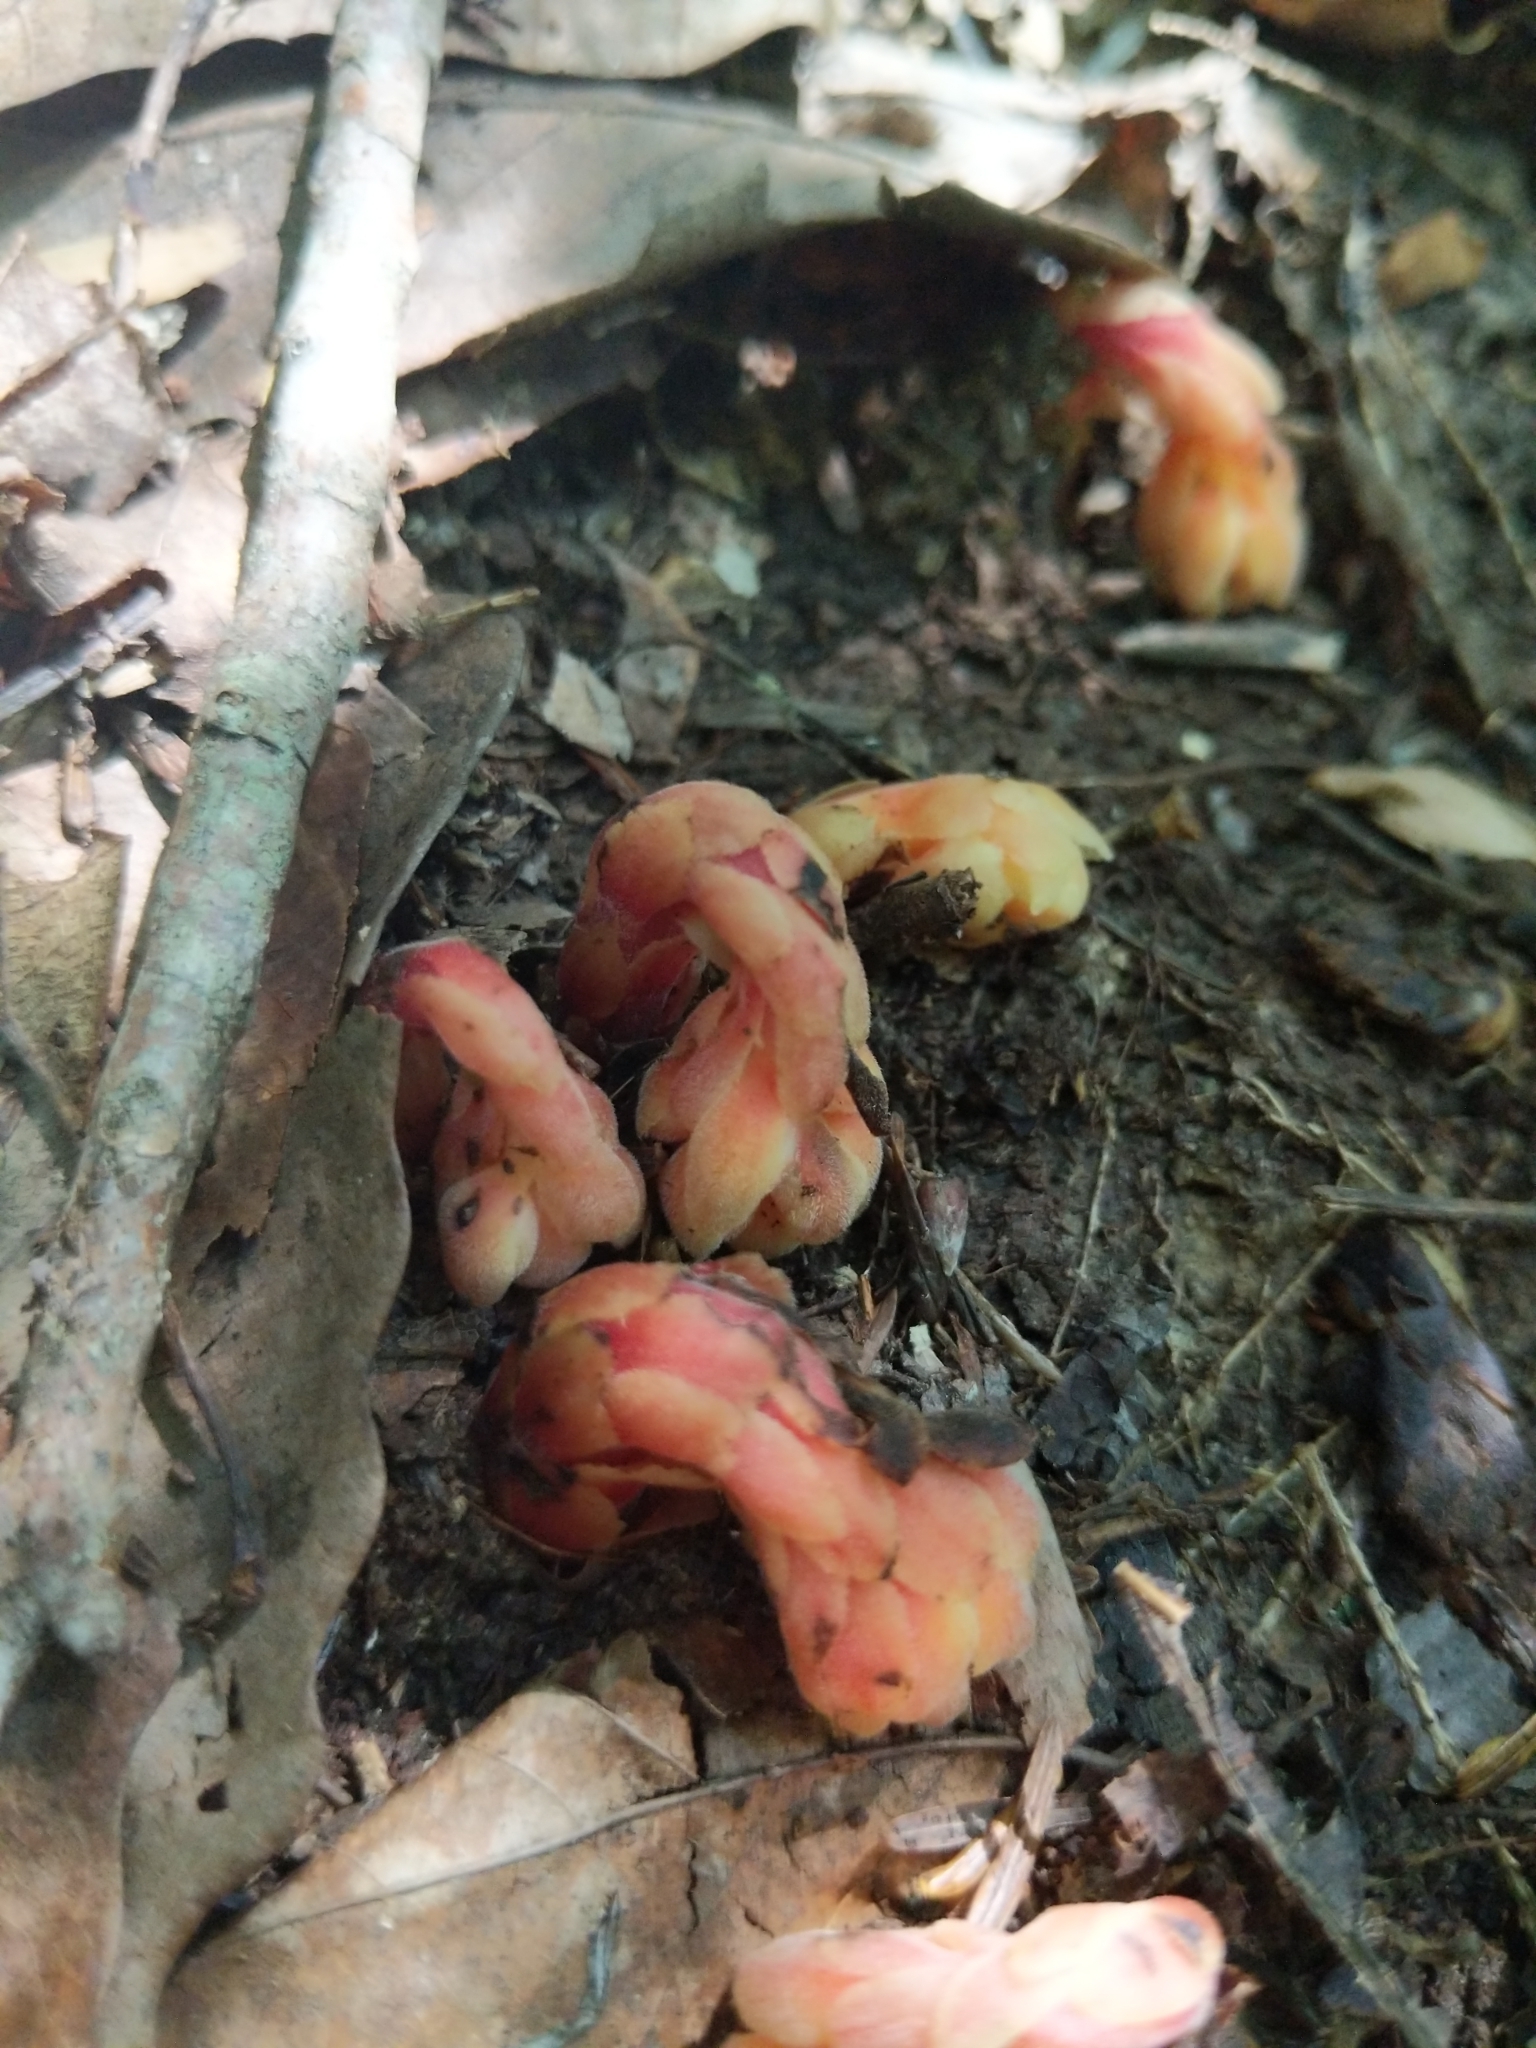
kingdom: Plantae
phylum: Tracheophyta
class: Magnoliopsida
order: Ericales
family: Ericaceae
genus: Hypopitys
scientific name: Hypopitys monotropa
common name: Yellow bird's-nest
